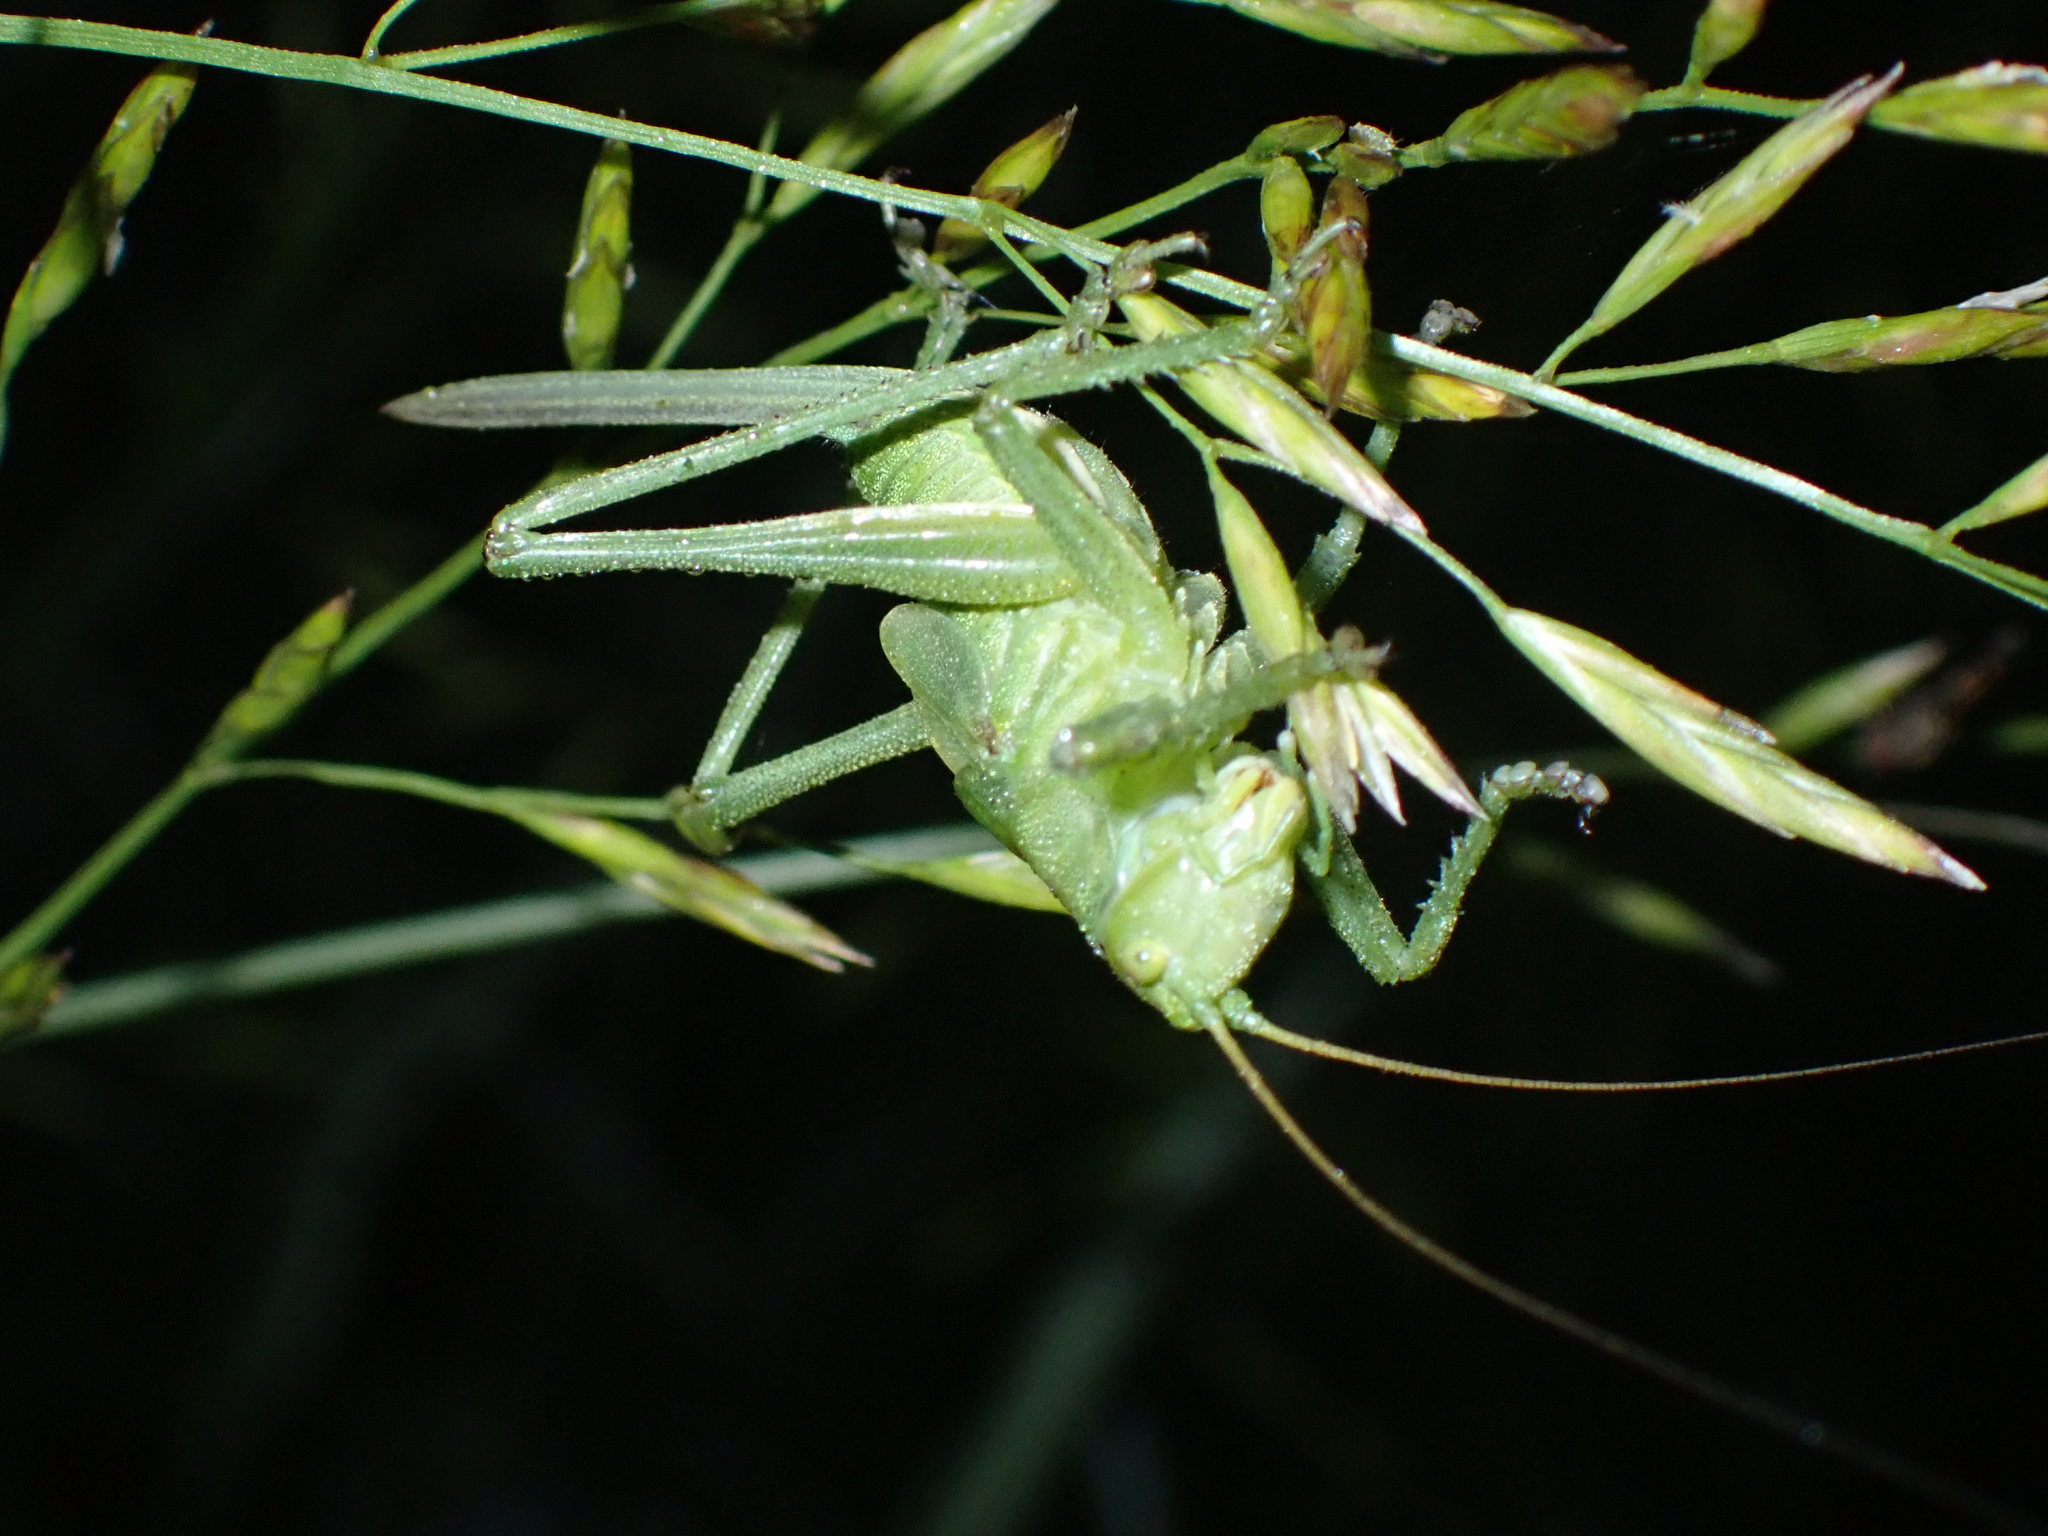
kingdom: Animalia
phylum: Arthropoda
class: Insecta
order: Orthoptera
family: Tettigoniidae
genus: Tettigonia
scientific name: Tettigonia cantans
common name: Upland green bush-cricket
